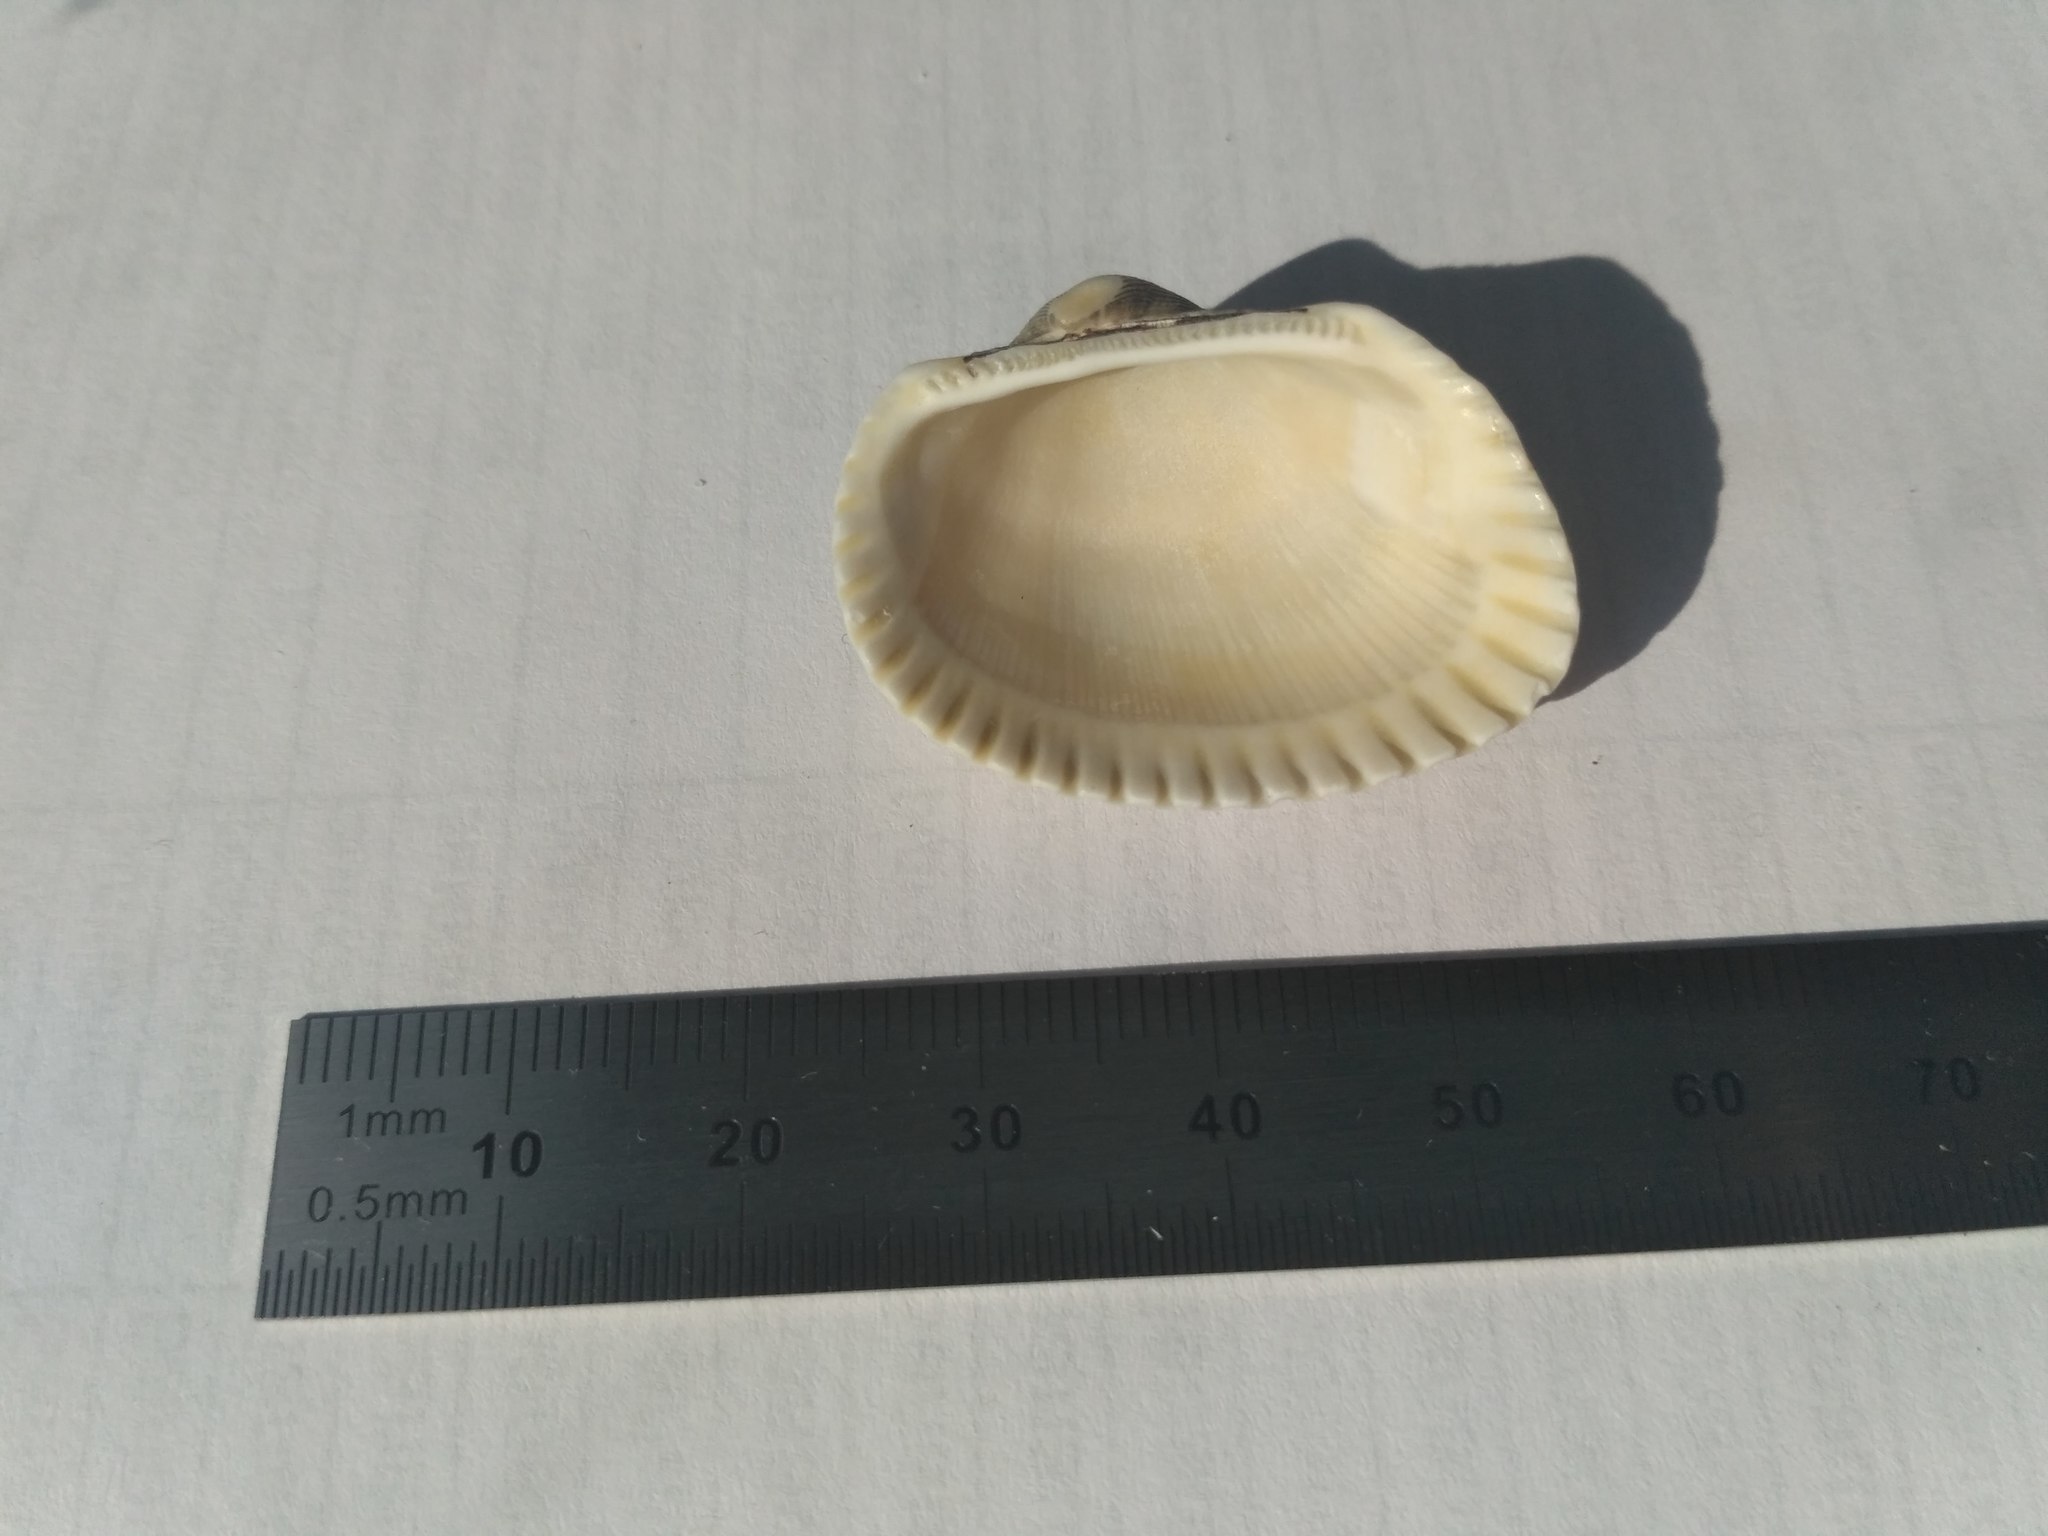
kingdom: Animalia
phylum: Mollusca
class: Bivalvia
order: Arcida
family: Arcidae
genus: Anadara
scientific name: Anadara kagoshimensis
